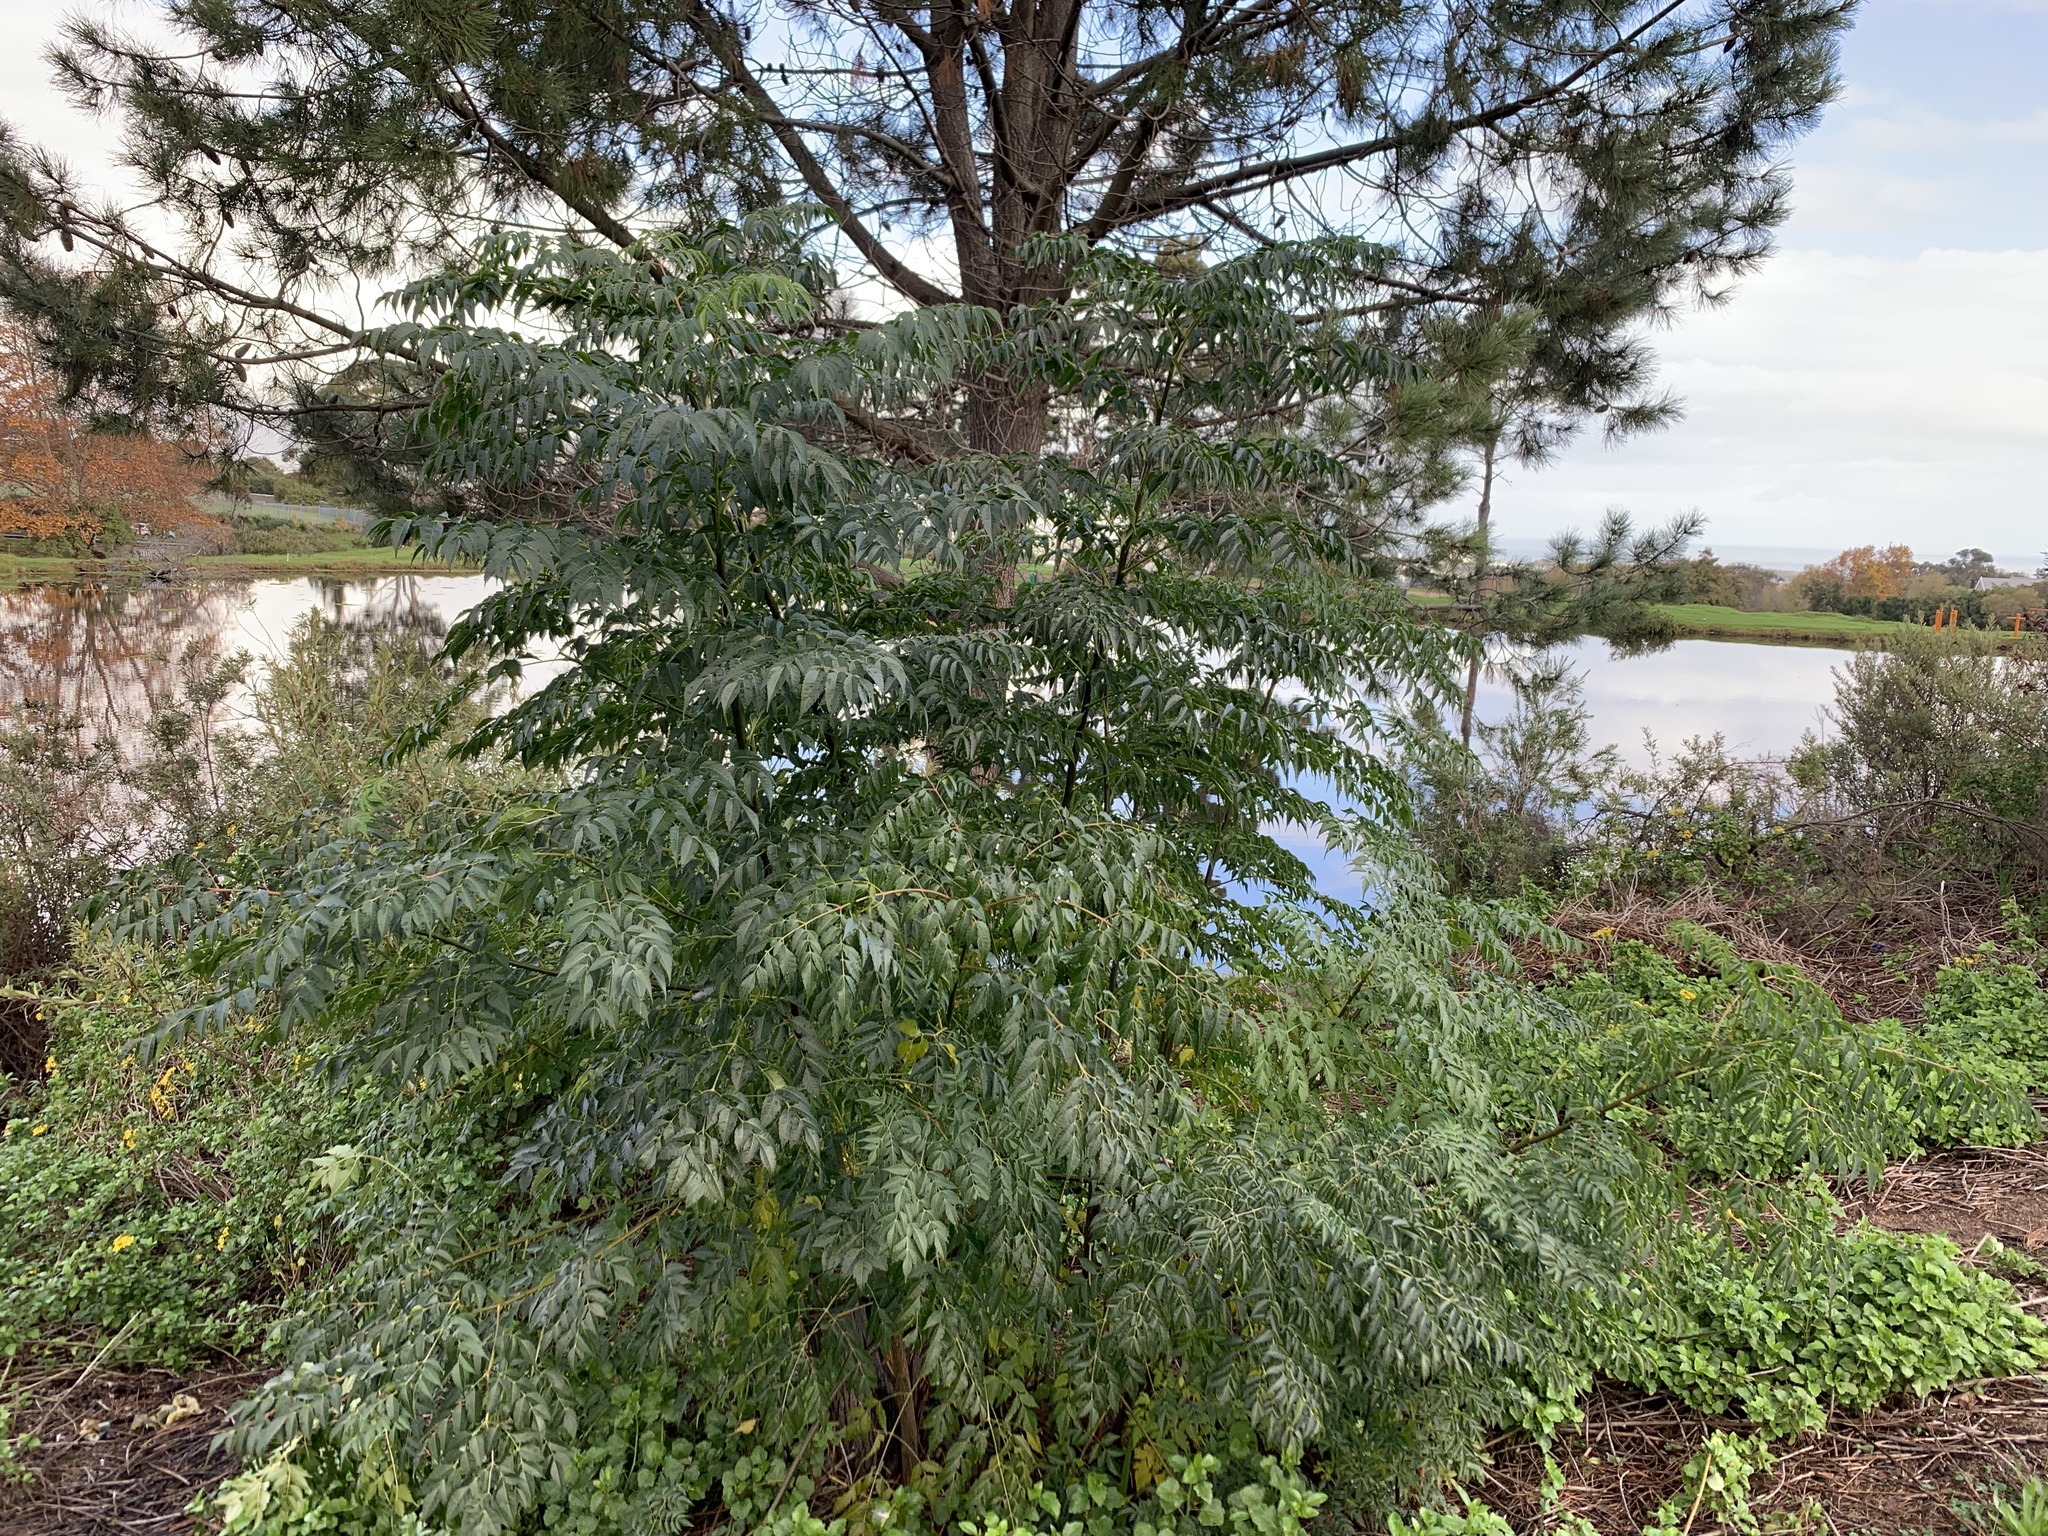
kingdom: Plantae
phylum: Tracheophyta
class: Magnoliopsida
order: Sapindales
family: Meliaceae
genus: Melia
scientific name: Melia azedarach
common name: Chinaberrytree
